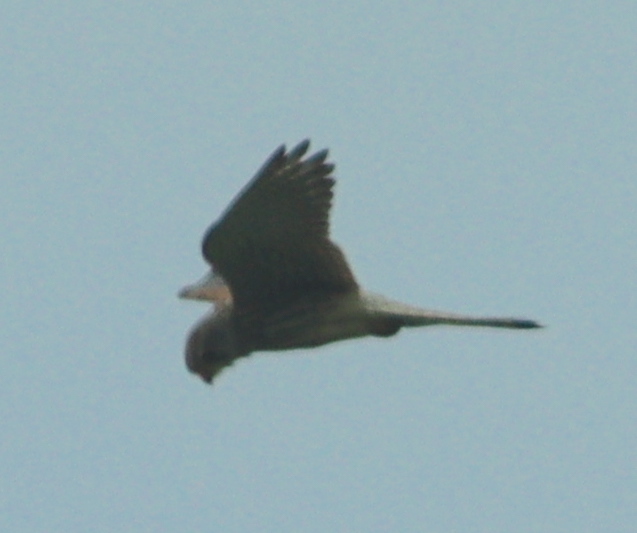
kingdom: Animalia
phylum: Chordata
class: Aves
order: Falconiformes
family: Falconidae
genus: Falco
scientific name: Falco tinnunculus
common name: Common kestrel
